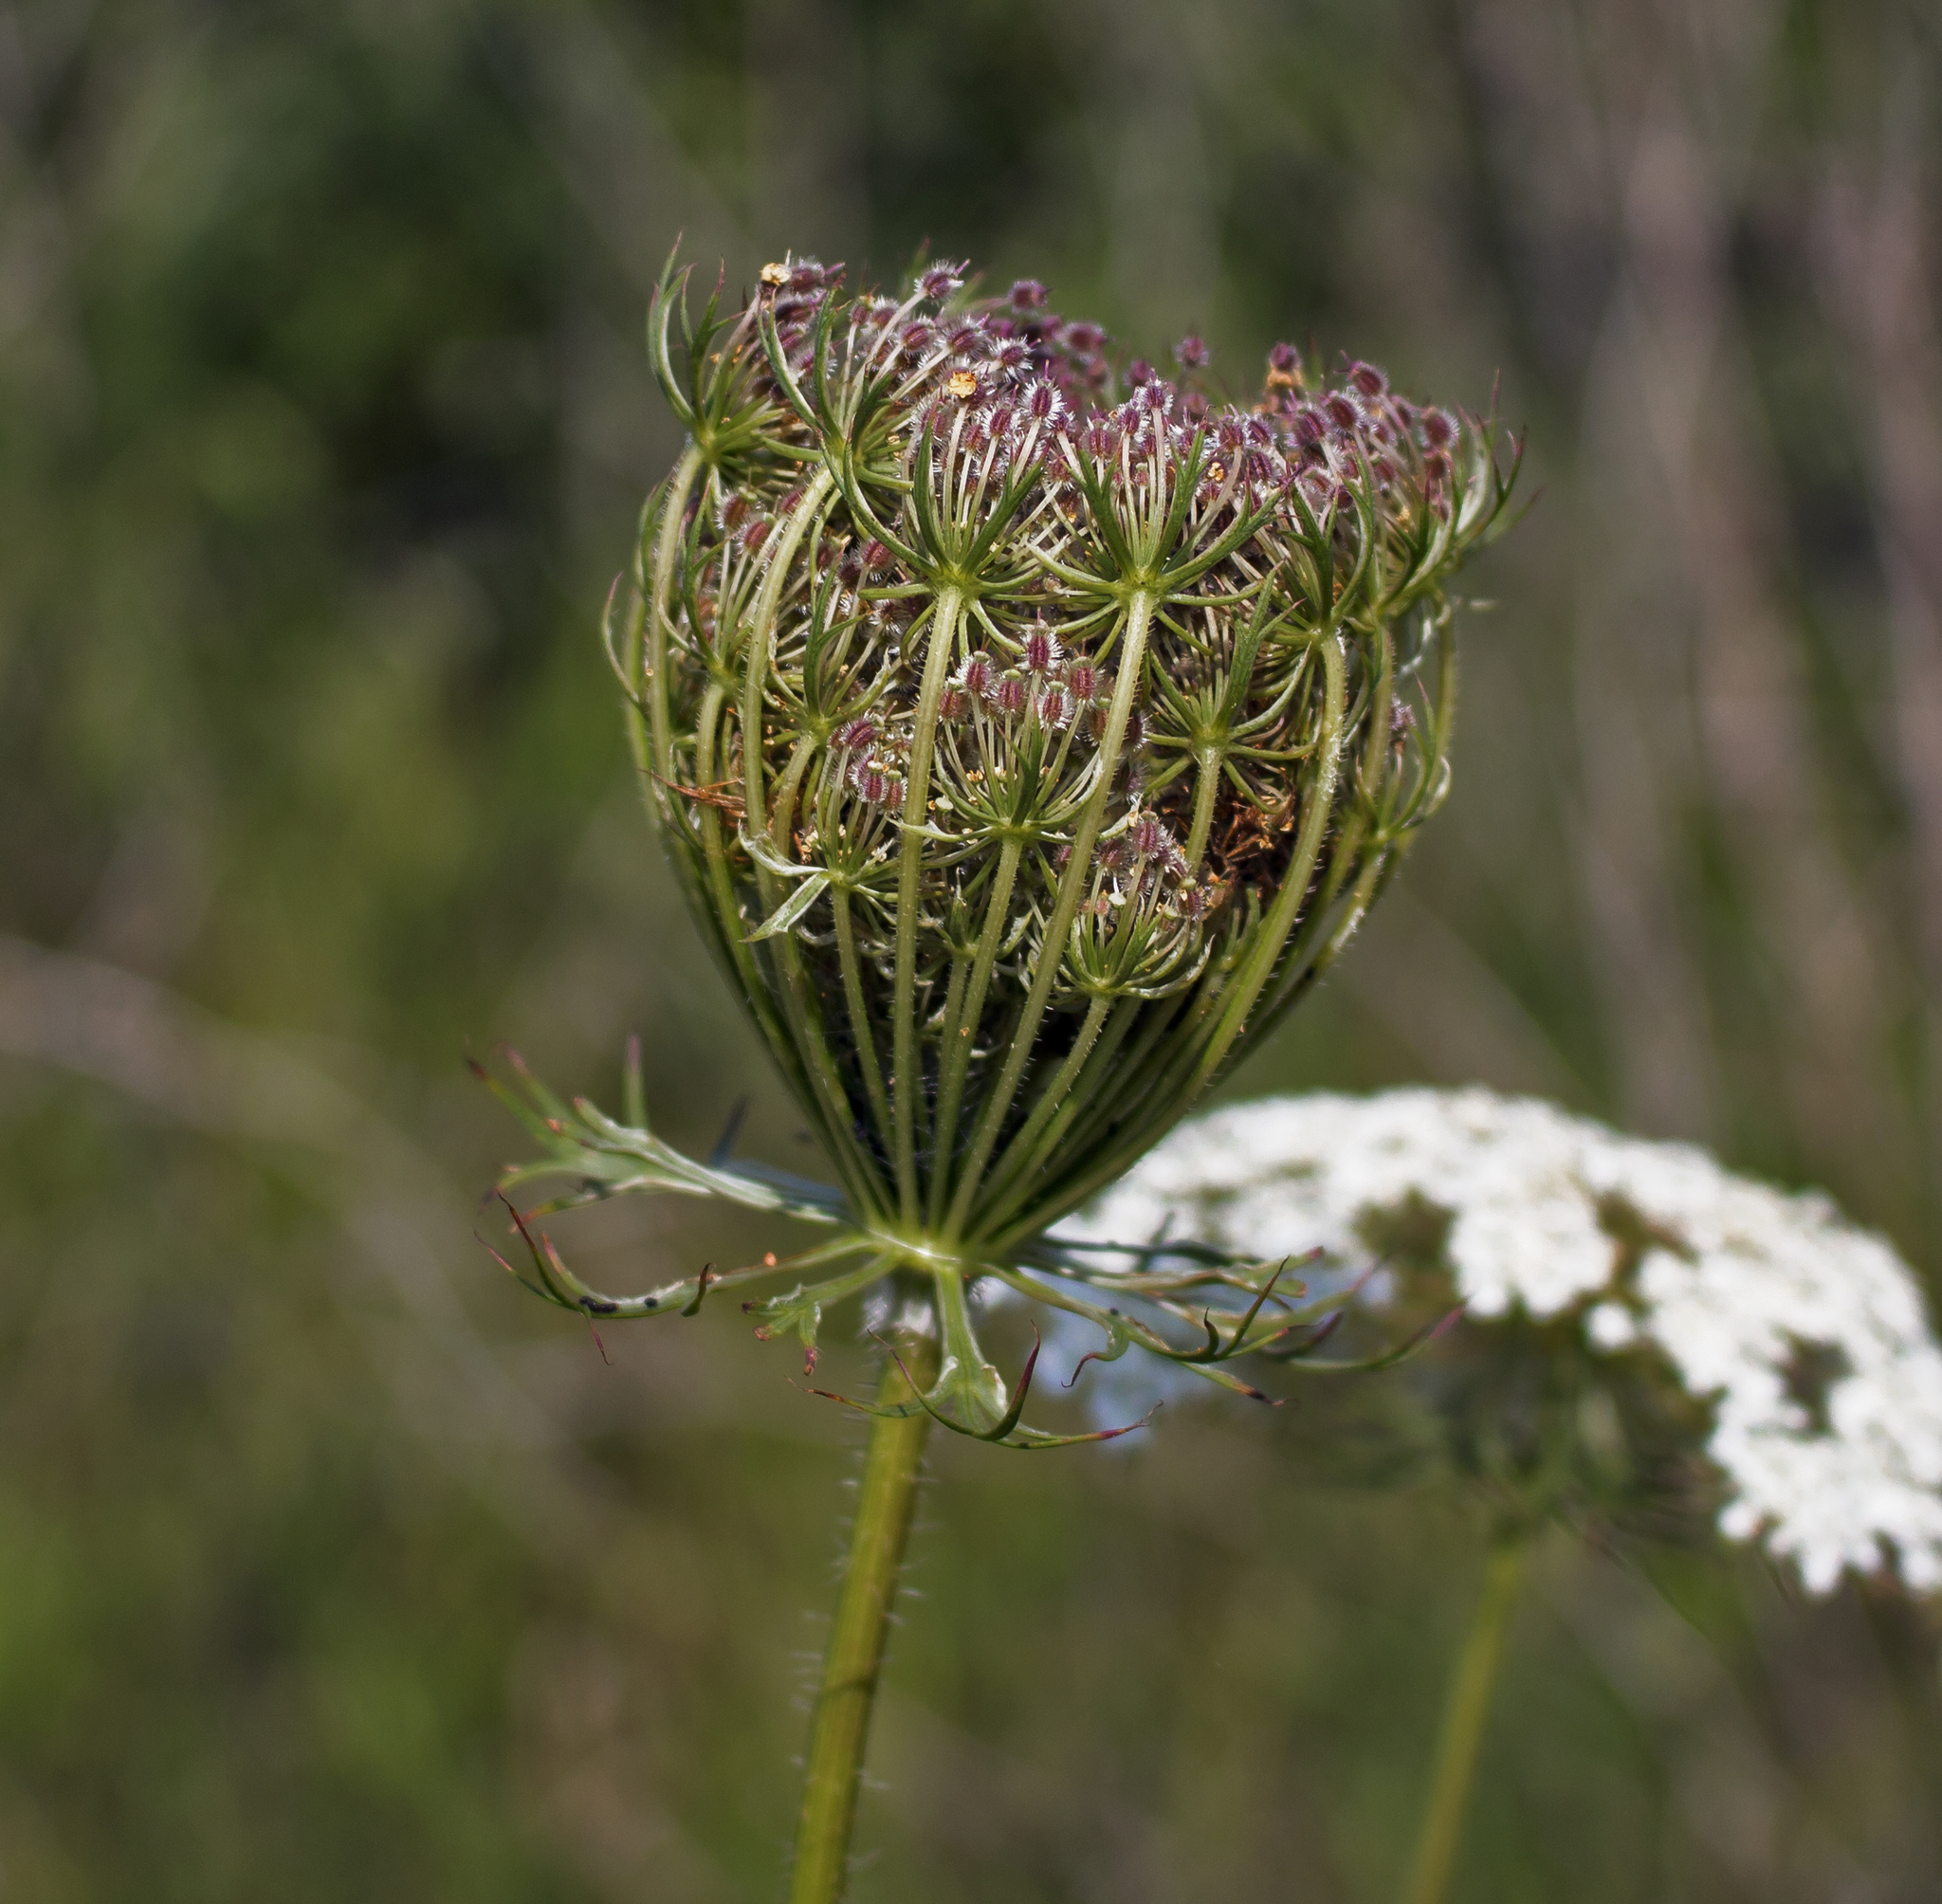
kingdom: Plantae
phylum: Tracheophyta
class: Magnoliopsida
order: Apiales
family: Apiaceae
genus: Daucus
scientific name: Daucus carota
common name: Wild carrot
